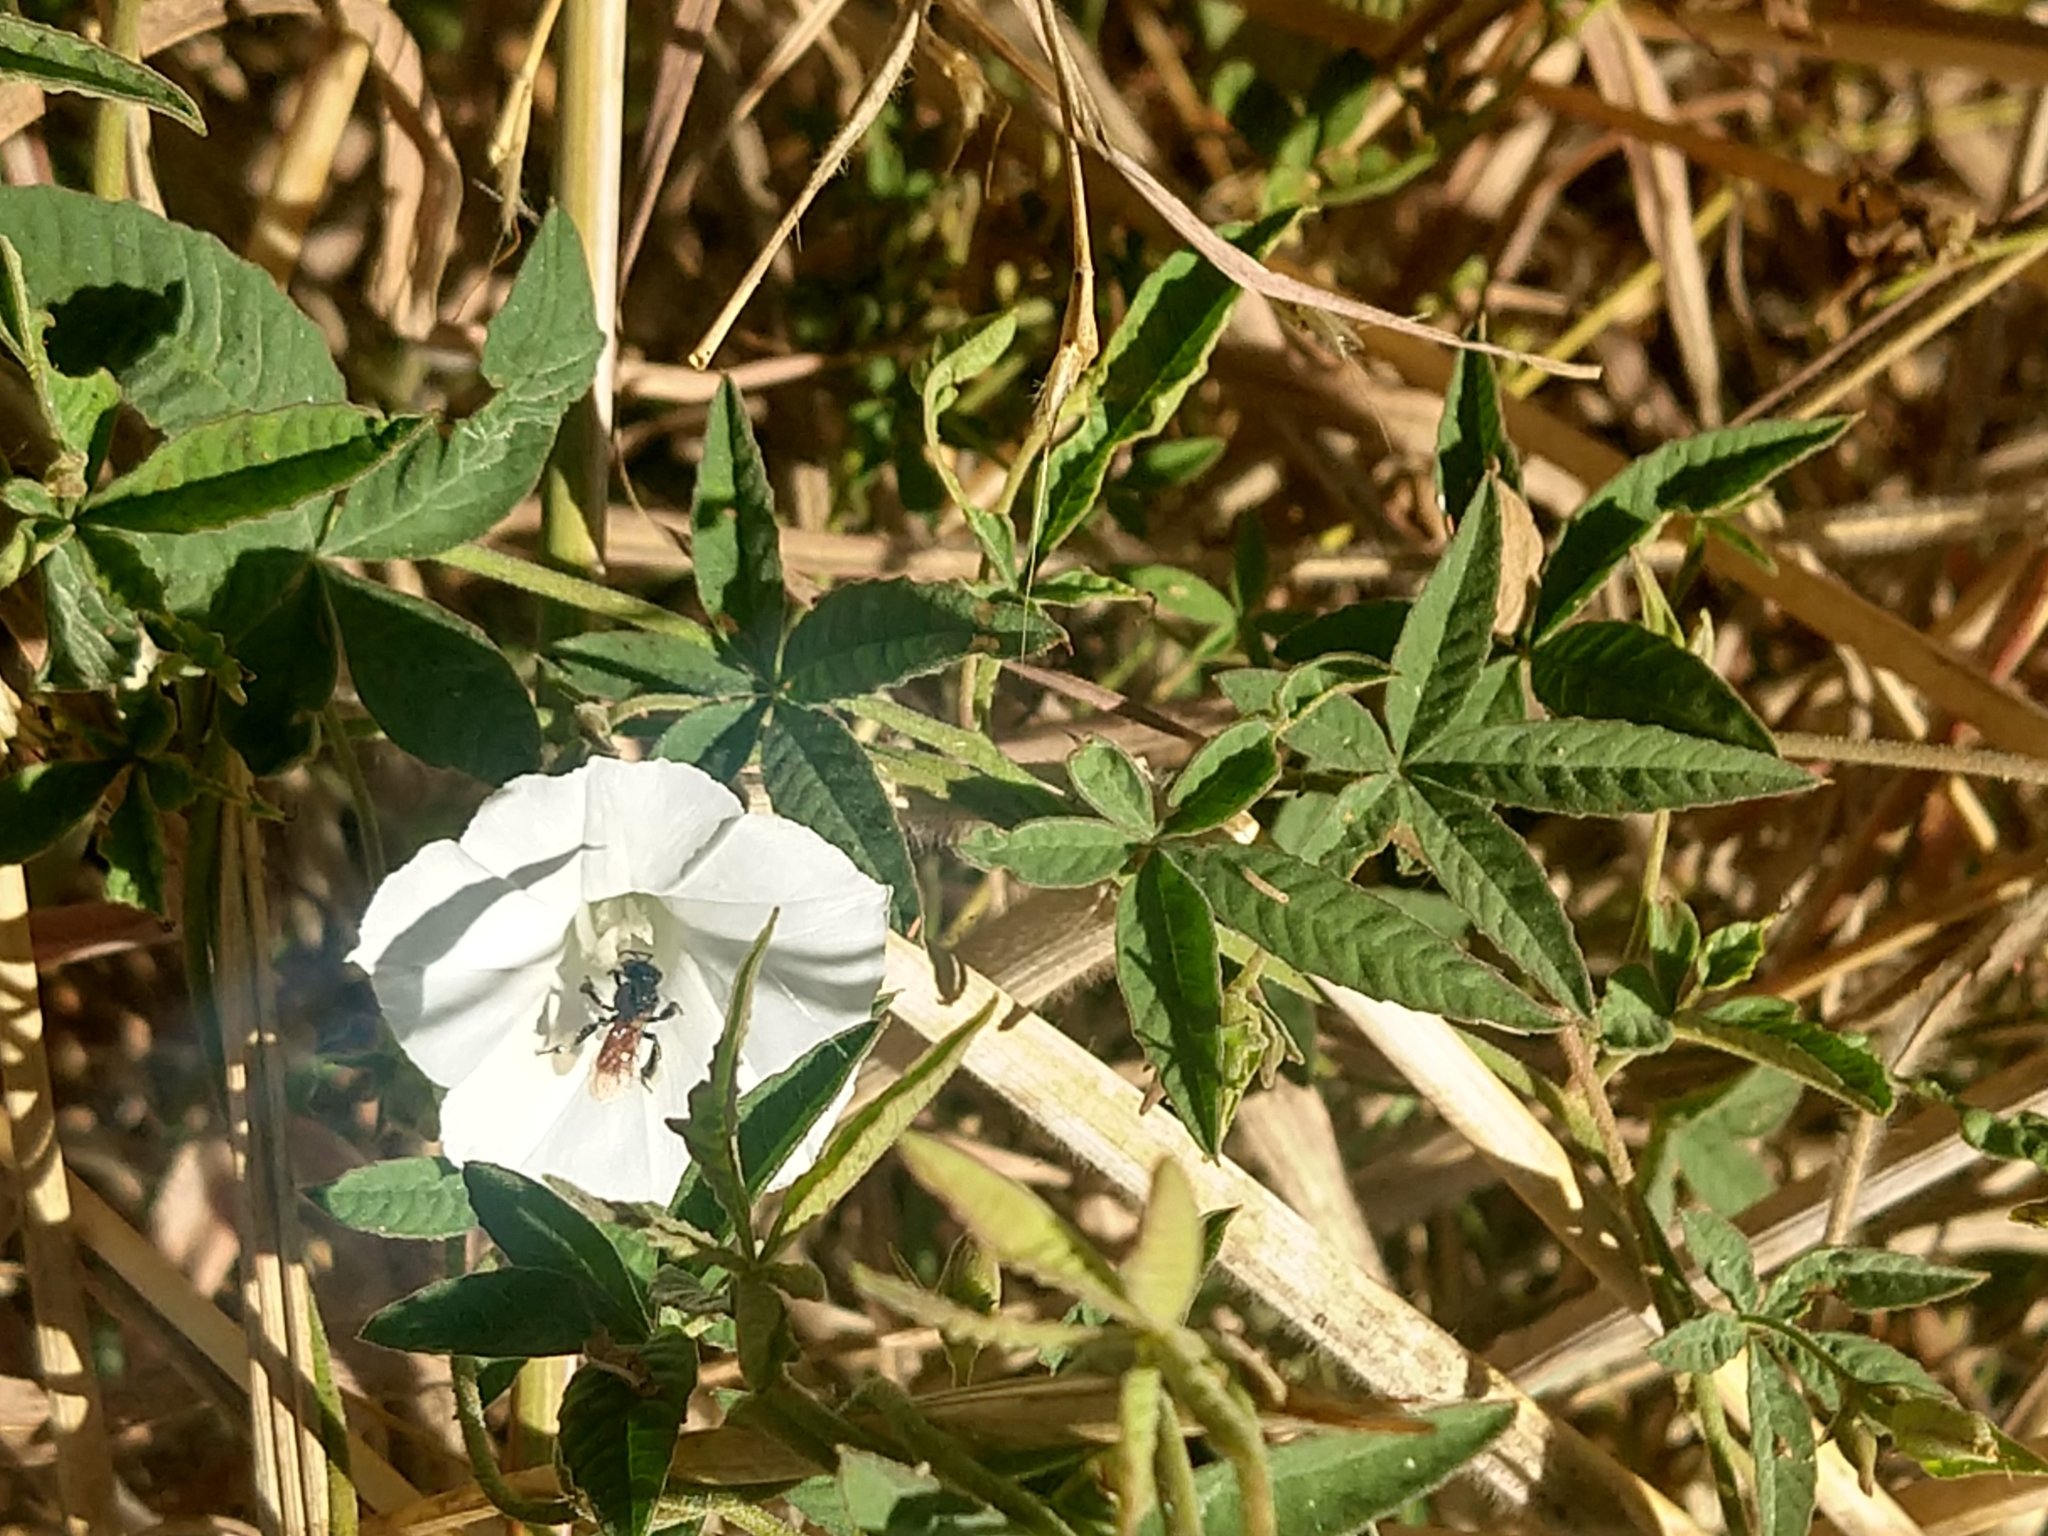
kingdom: Plantae
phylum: Tracheophyta
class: Magnoliopsida
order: Solanales
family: Convolvulaceae
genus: Distimake
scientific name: Distimake cissoides
